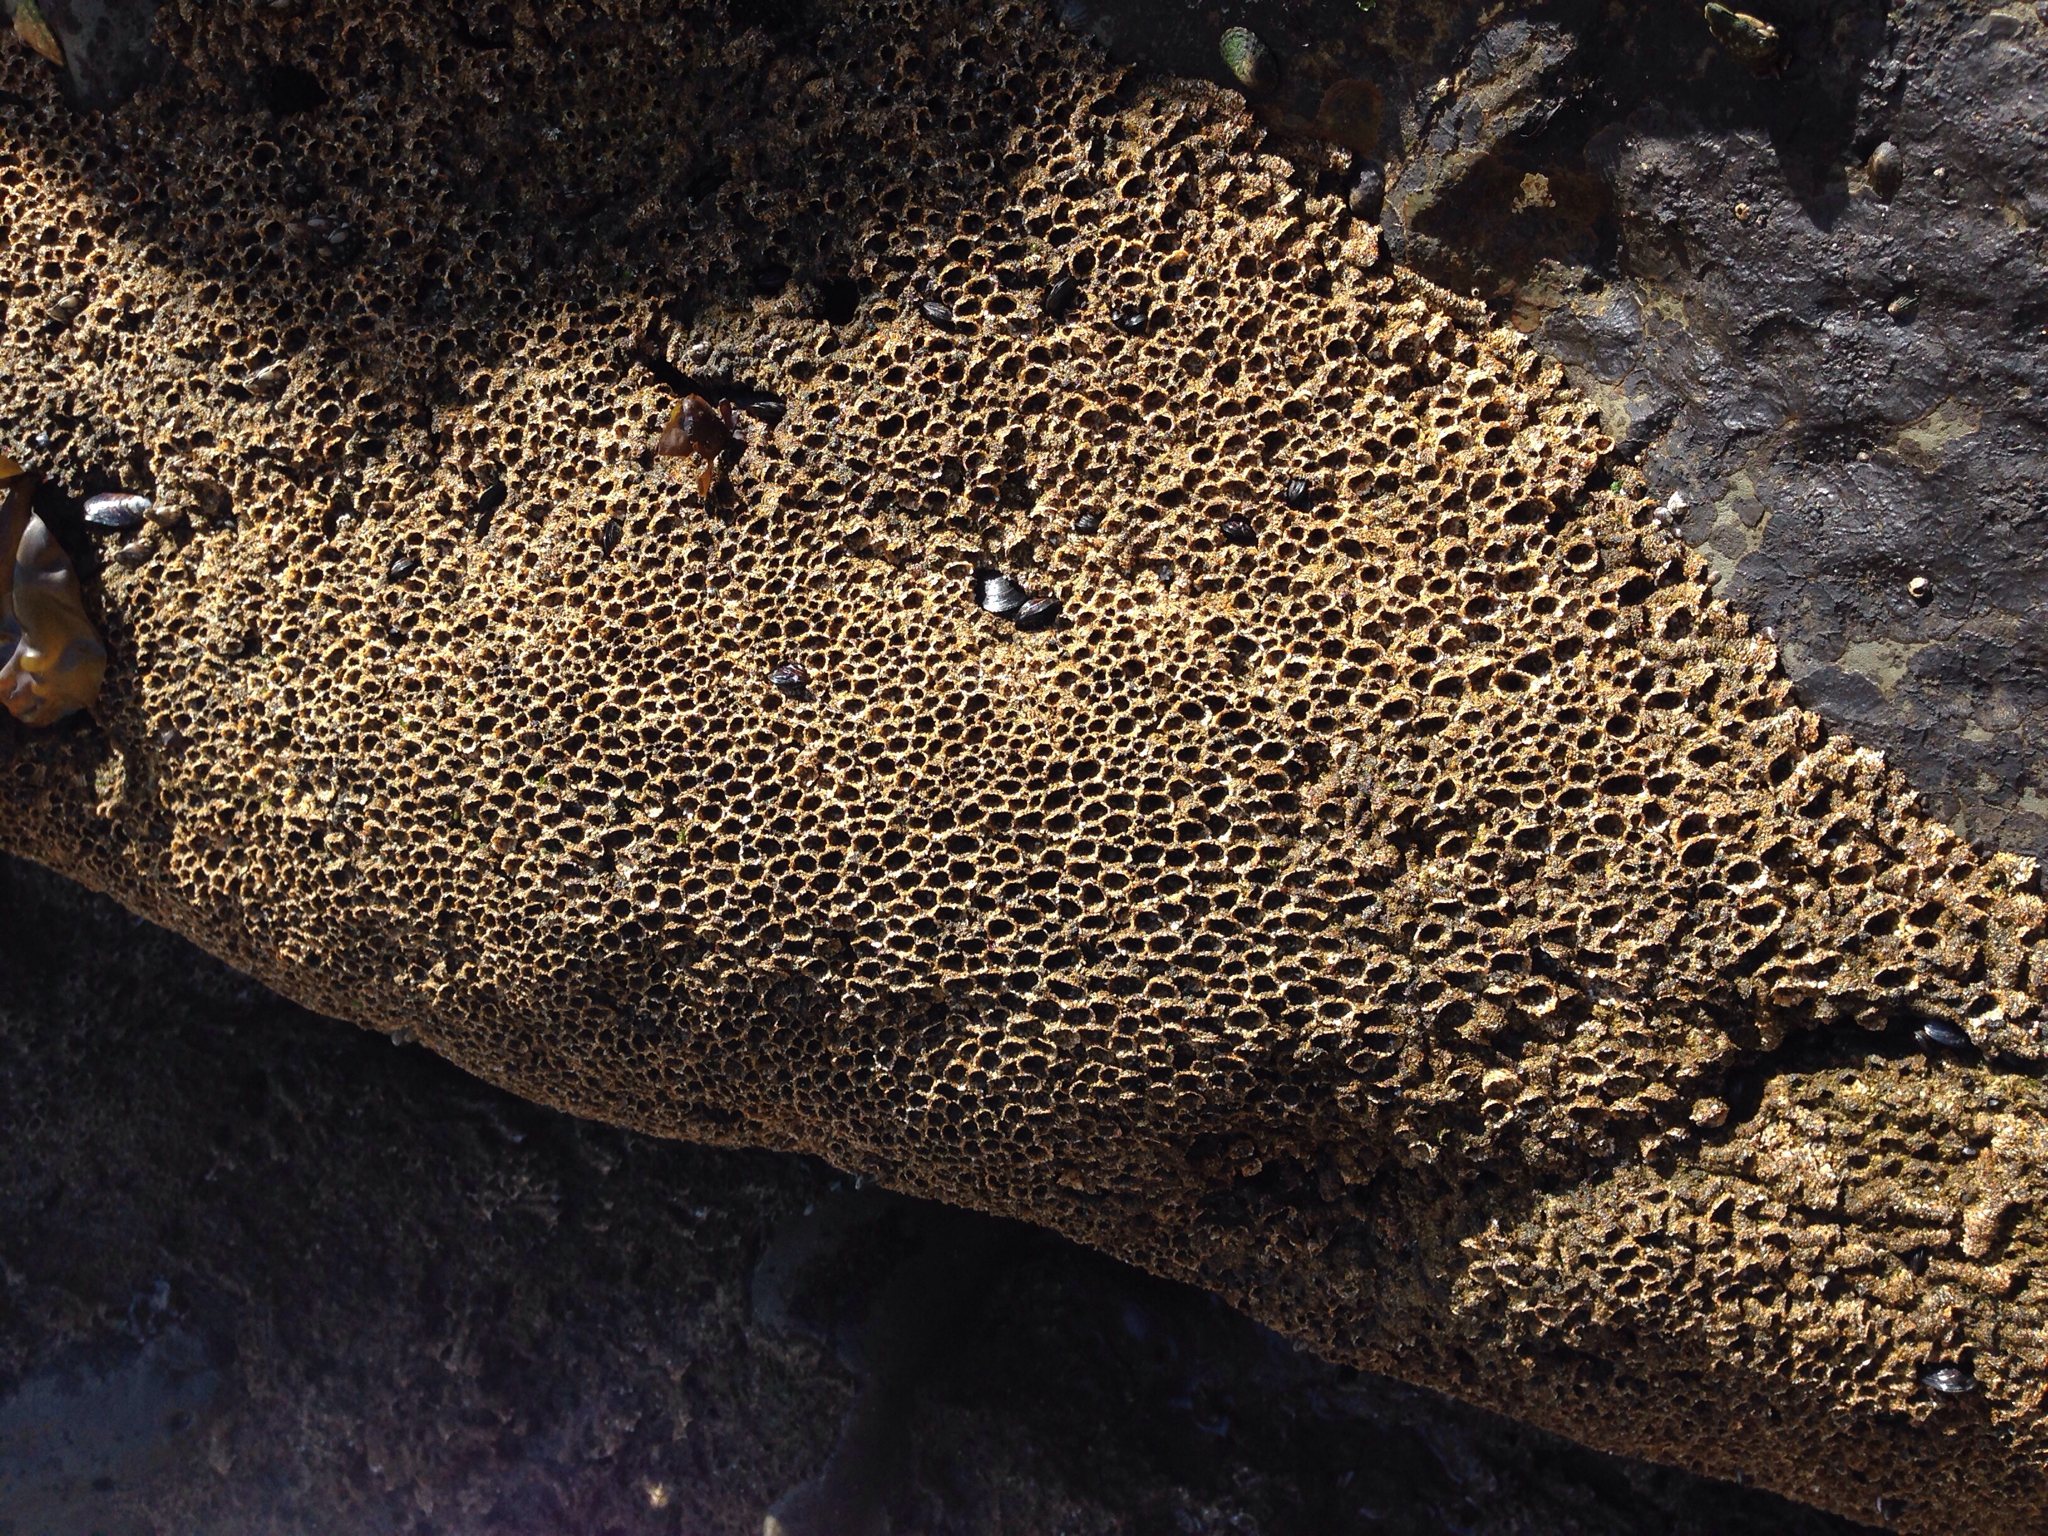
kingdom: Animalia
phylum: Annelida
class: Polychaeta
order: Sabellida
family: Sabellariidae
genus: Phragmatopoma
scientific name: Phragmatopoma californica
